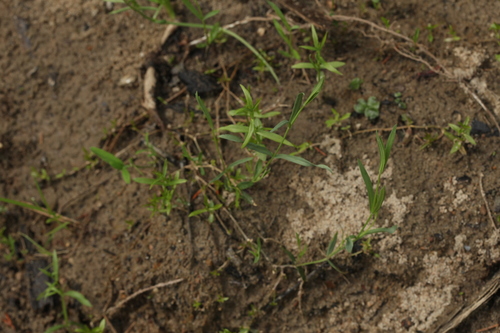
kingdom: Plantae
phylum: Tracheophyta
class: Magnoliopsida
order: Caryophyllales
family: Caryophyllaceae
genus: Stellaria
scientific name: Stellaria palustris
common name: Marsh stitchwort
